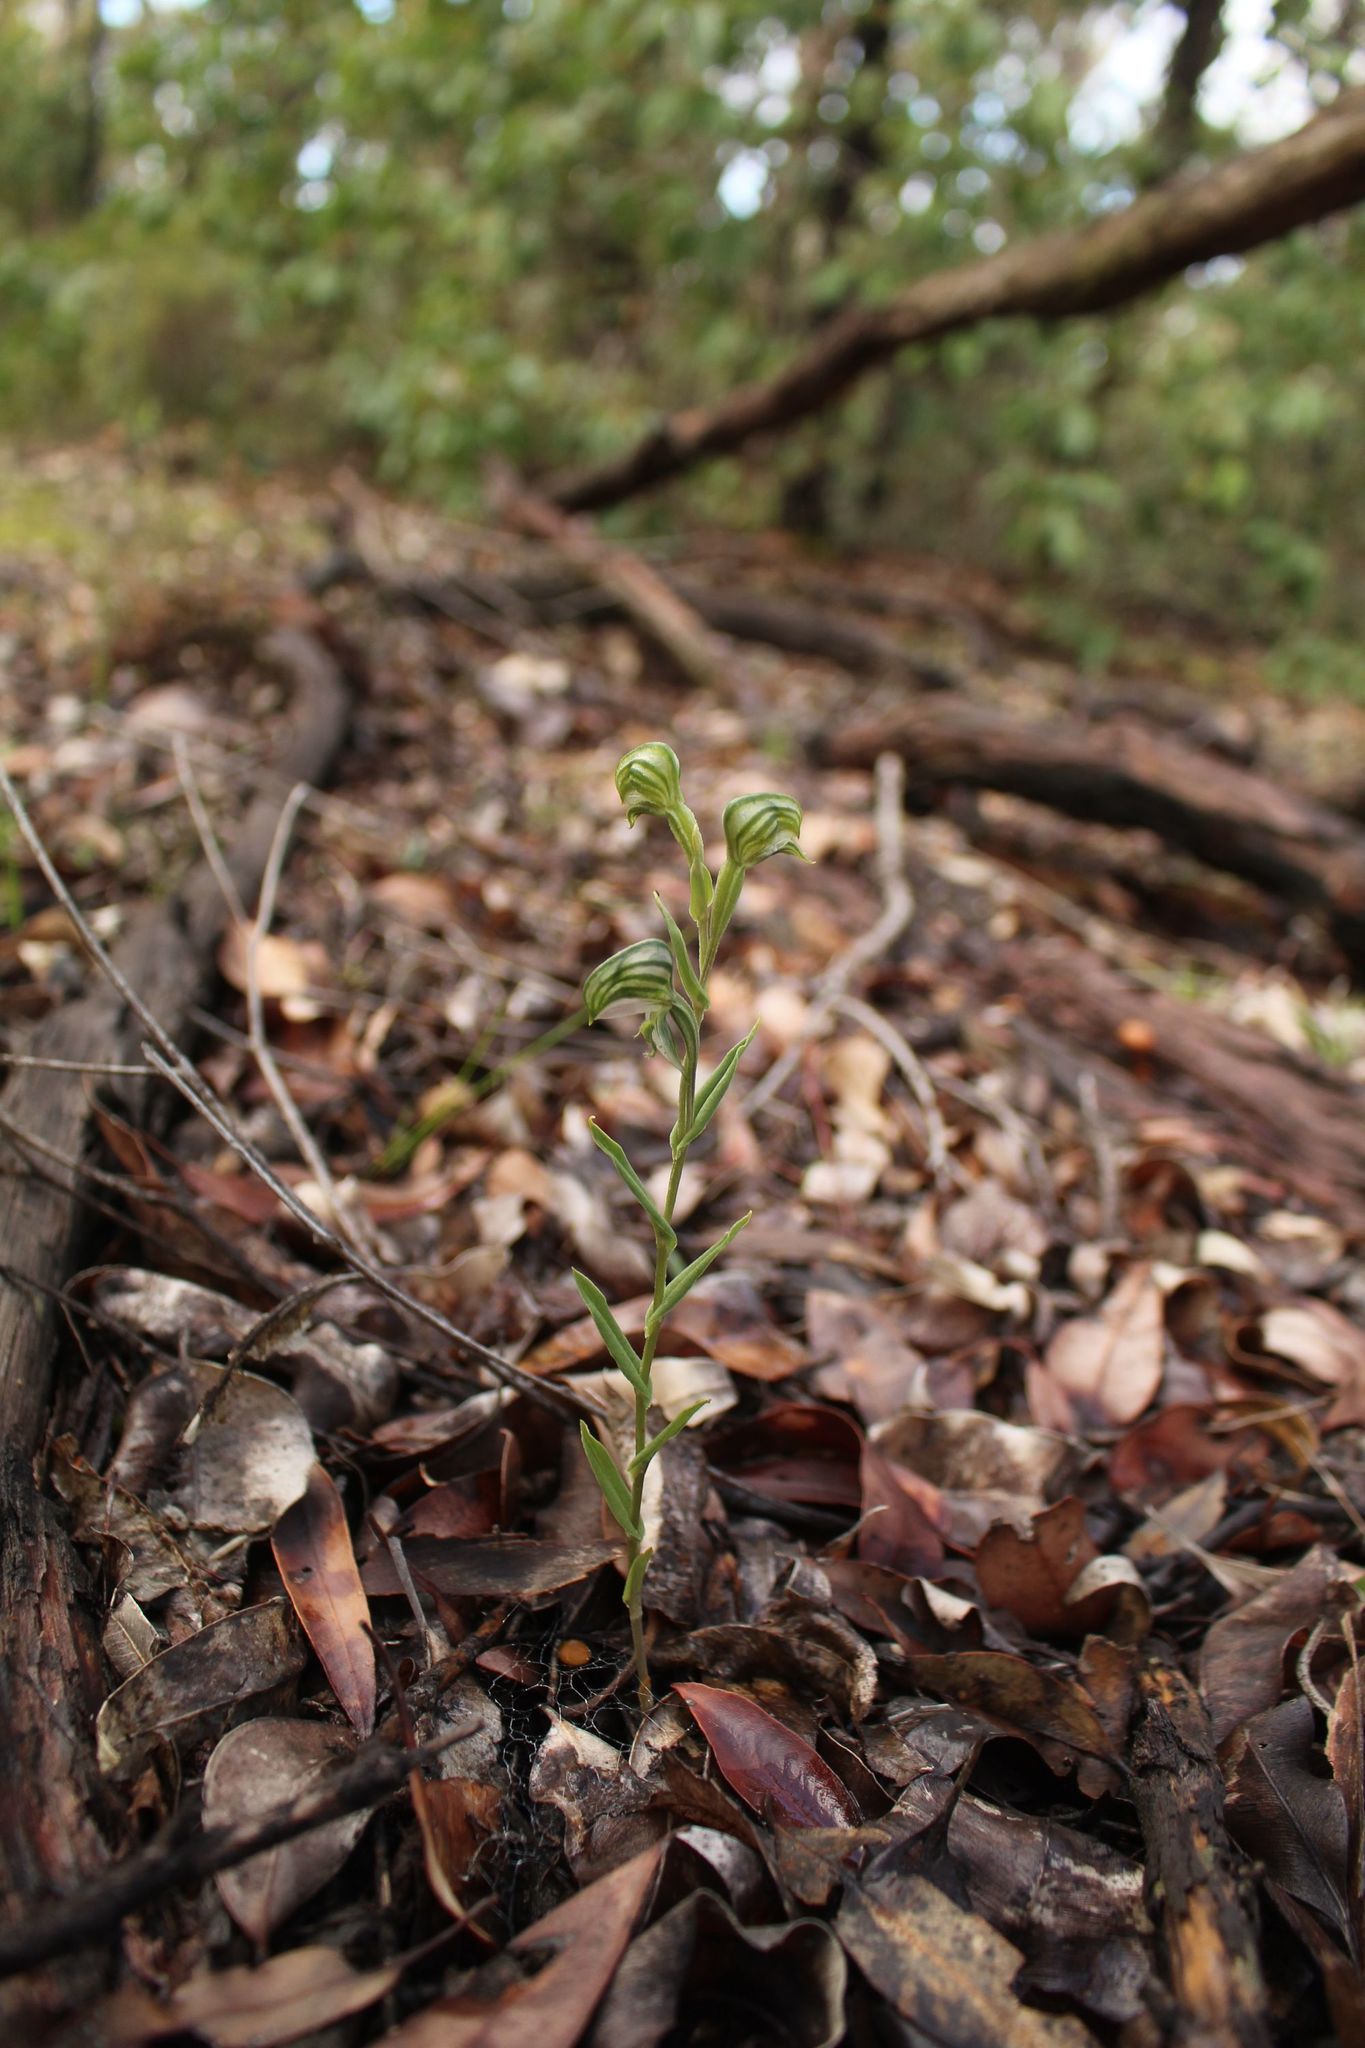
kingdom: Plantae
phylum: Tracheophyta
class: Liliopsida
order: Asparagales
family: Orchidaceae
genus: Pterostylis
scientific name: Pterostylis vittata
